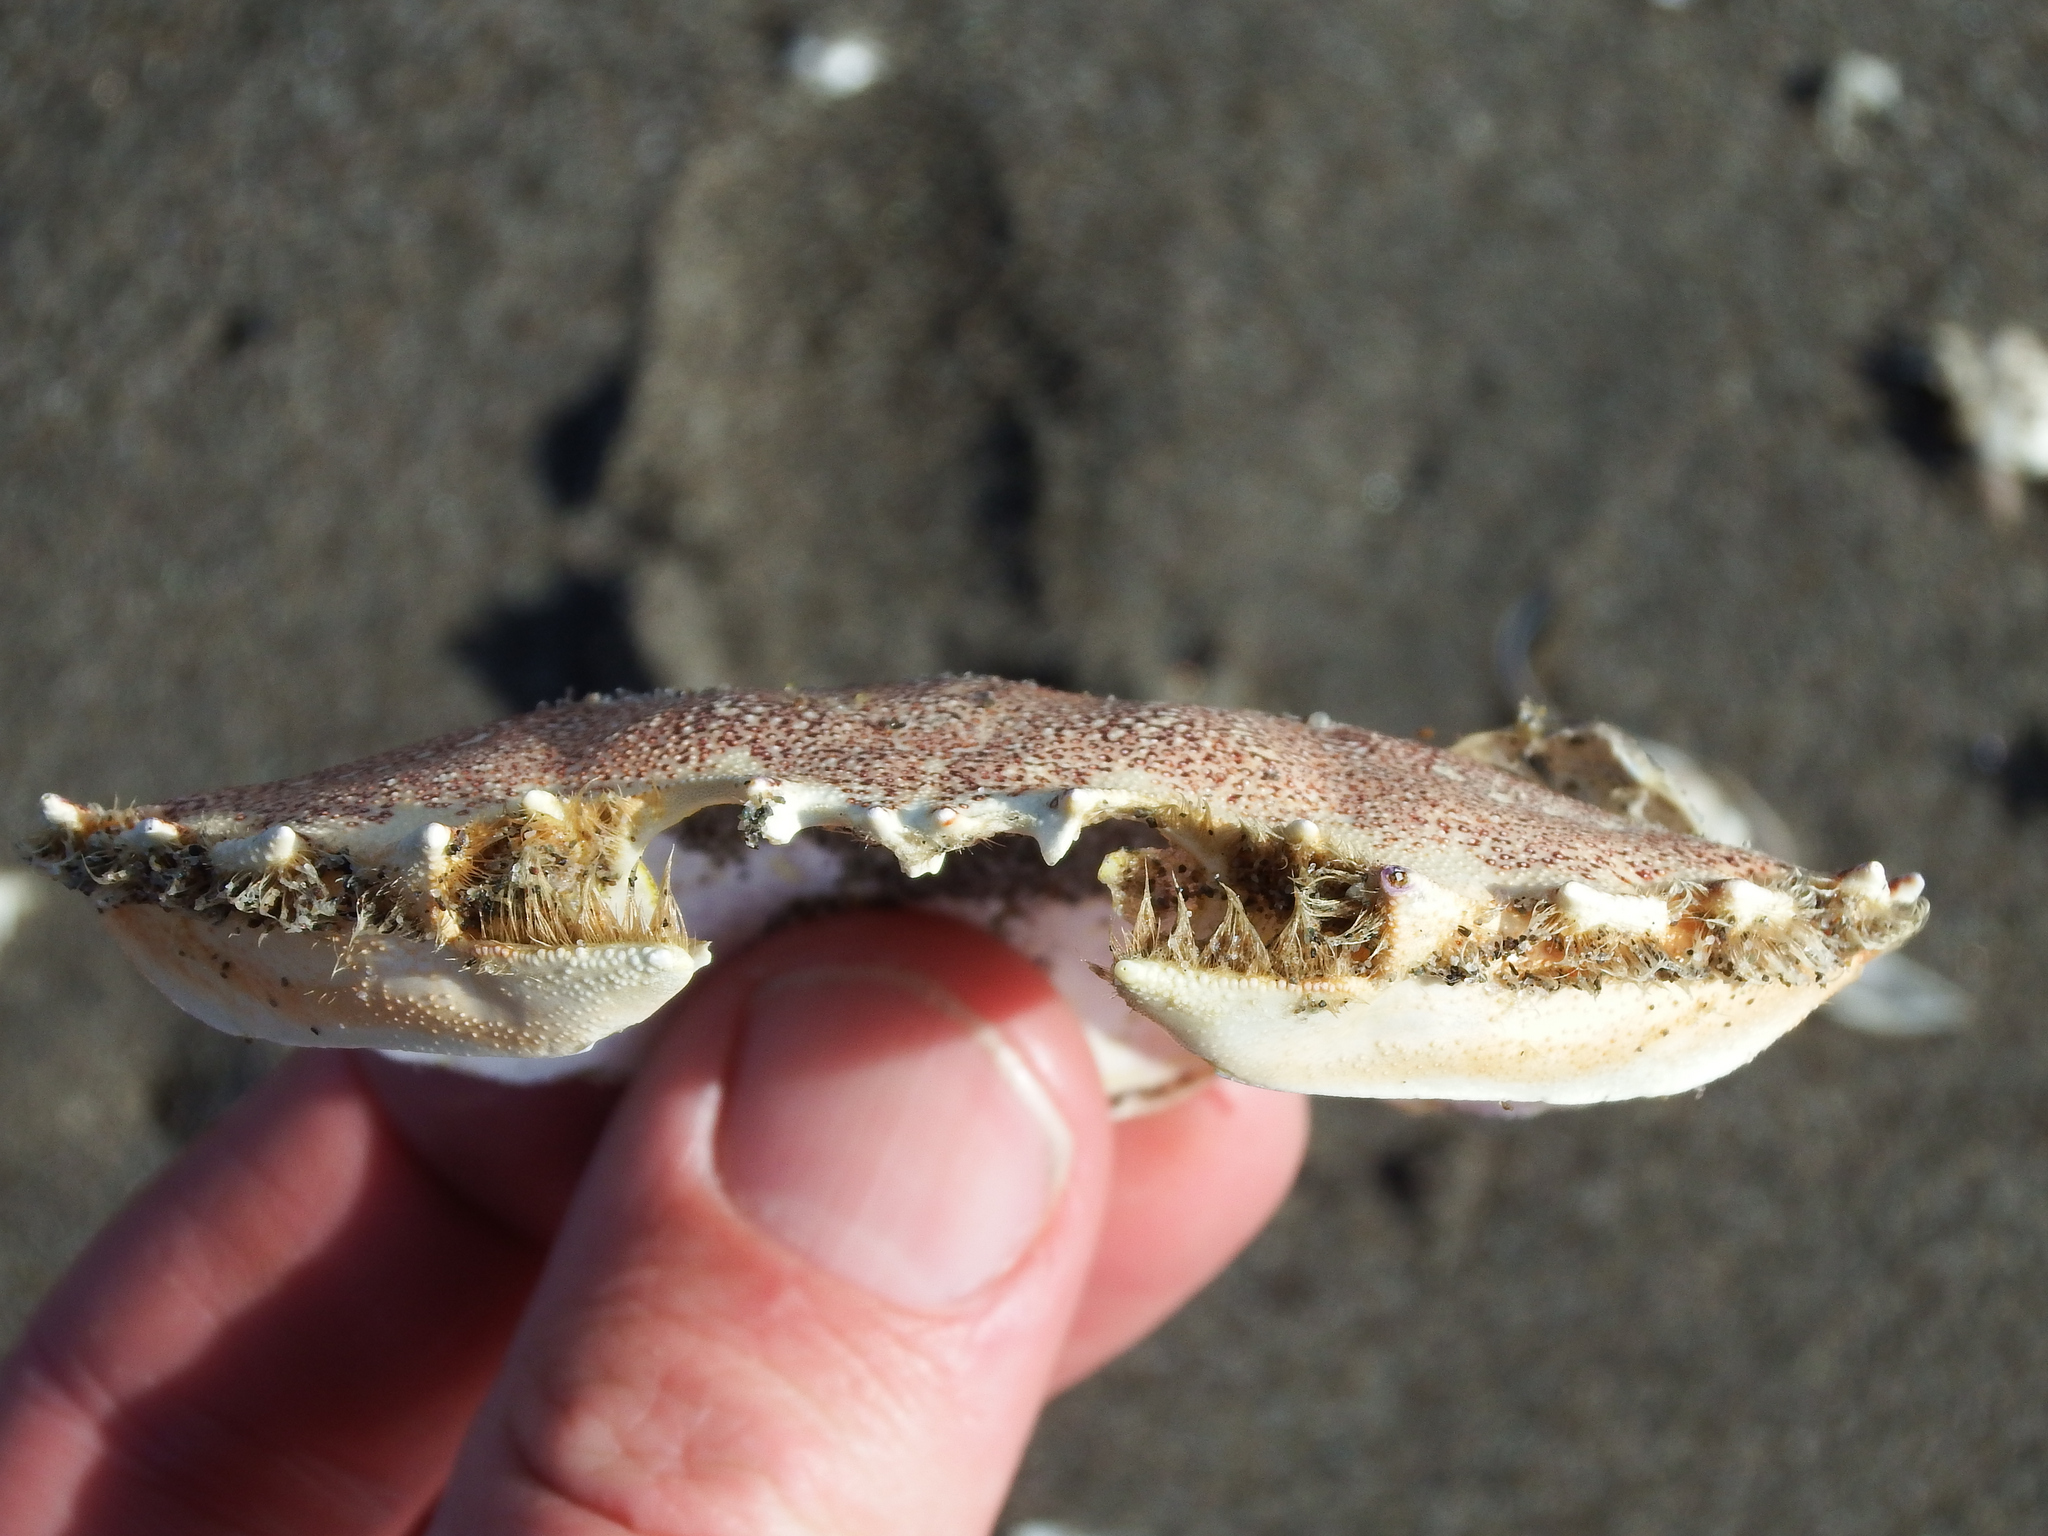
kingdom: Animalia
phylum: Arthropoda
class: Malacostraca
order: Decapoda
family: Ovalipidae
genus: Ovalipes
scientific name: Ovalipes trimaculatus
